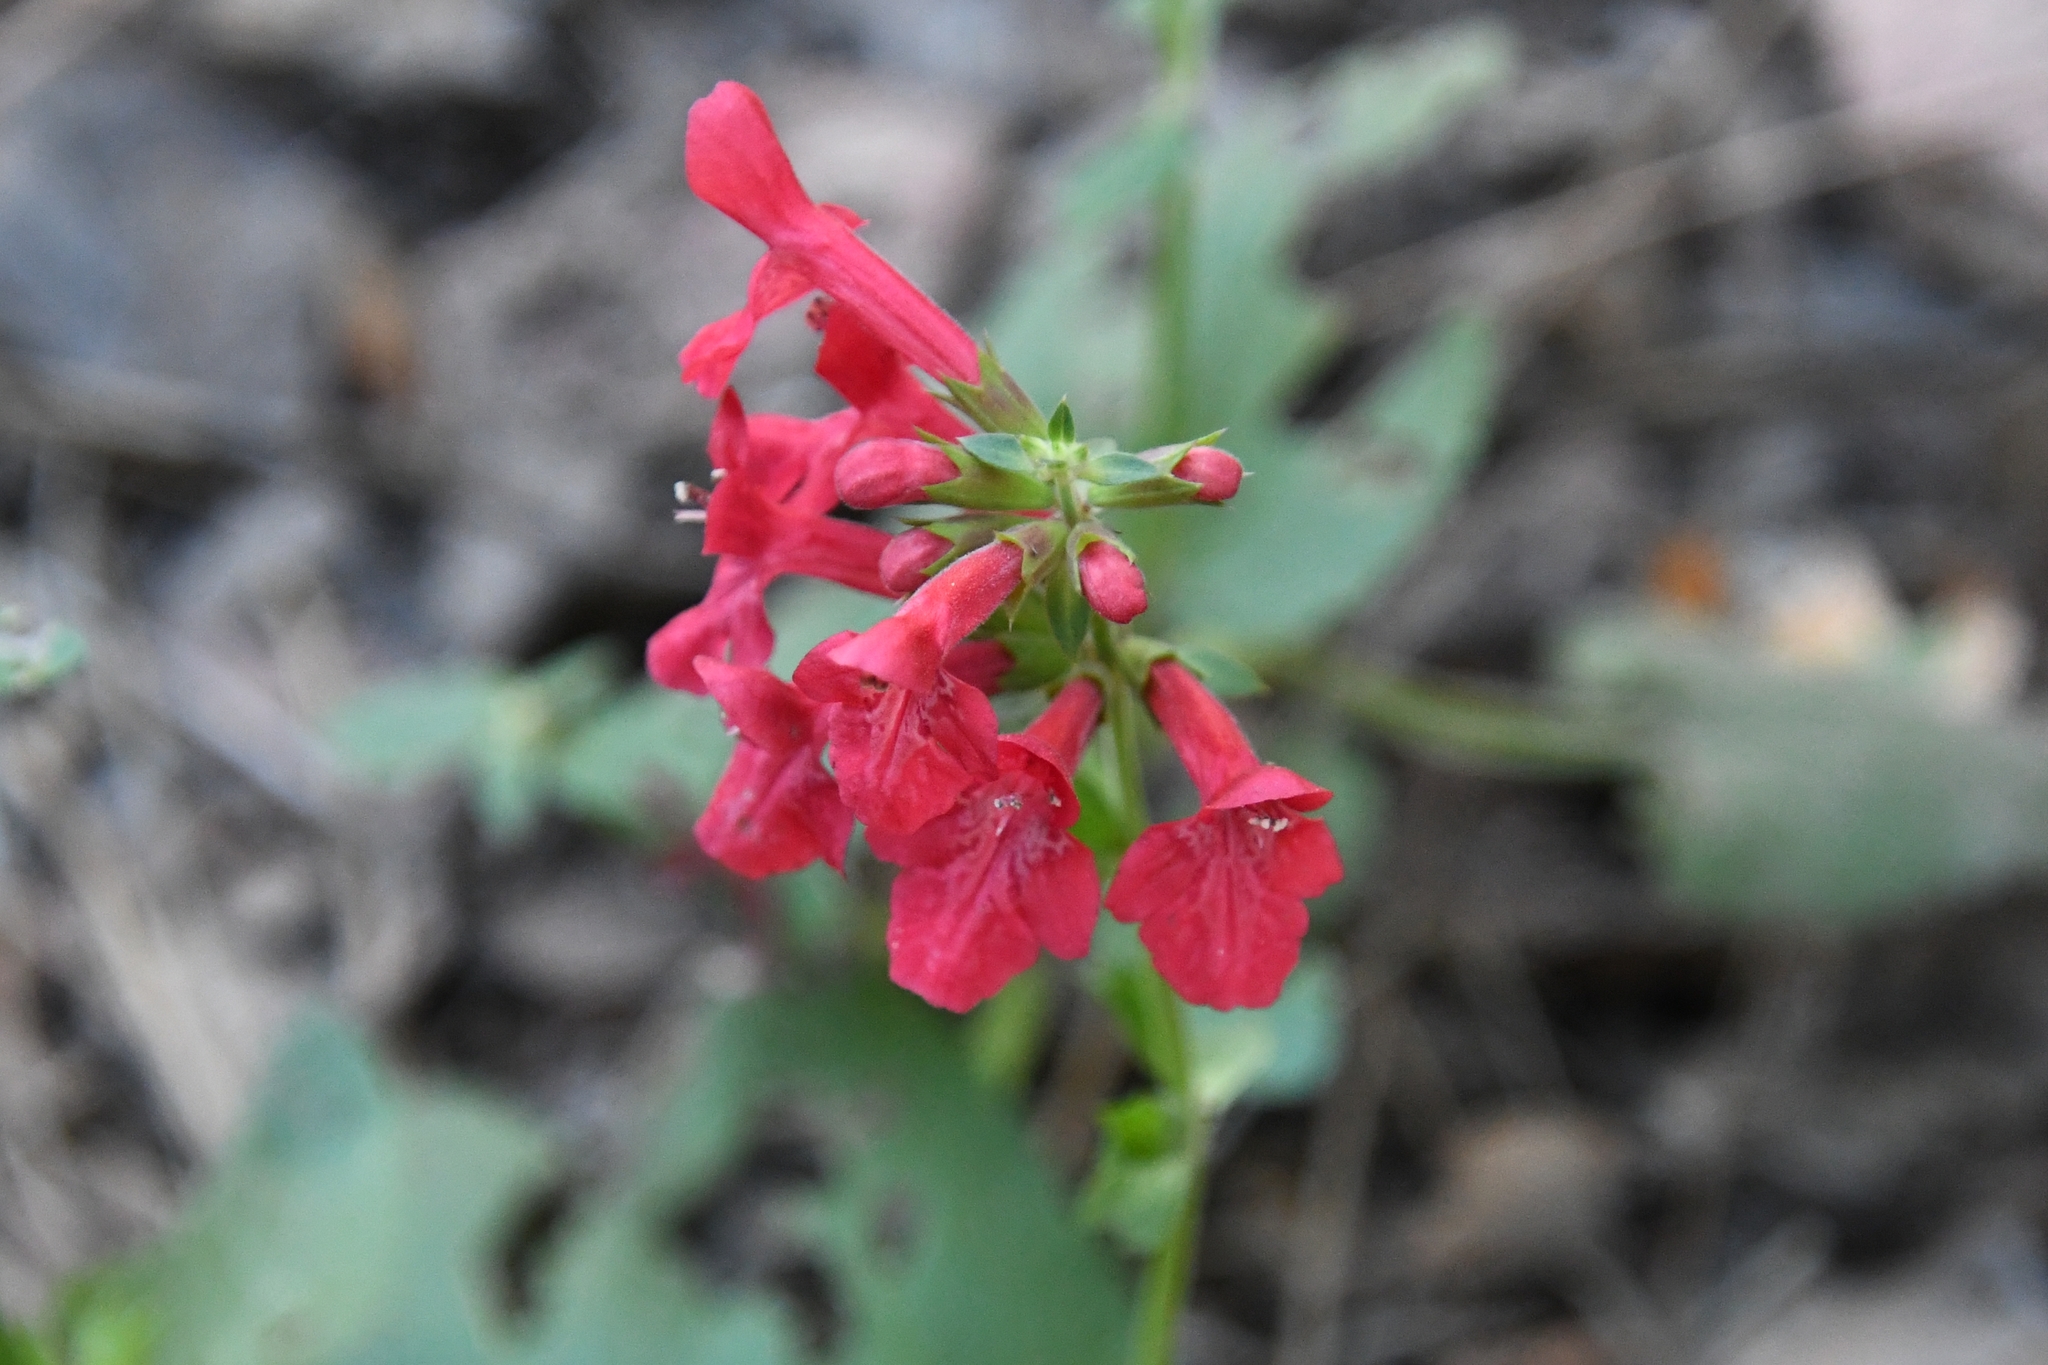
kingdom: Plantae
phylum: Tracheophyta
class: Magnoliopsida
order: Lamiales
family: Lamiaceae
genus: Stachys
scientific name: Stachys coccinea
